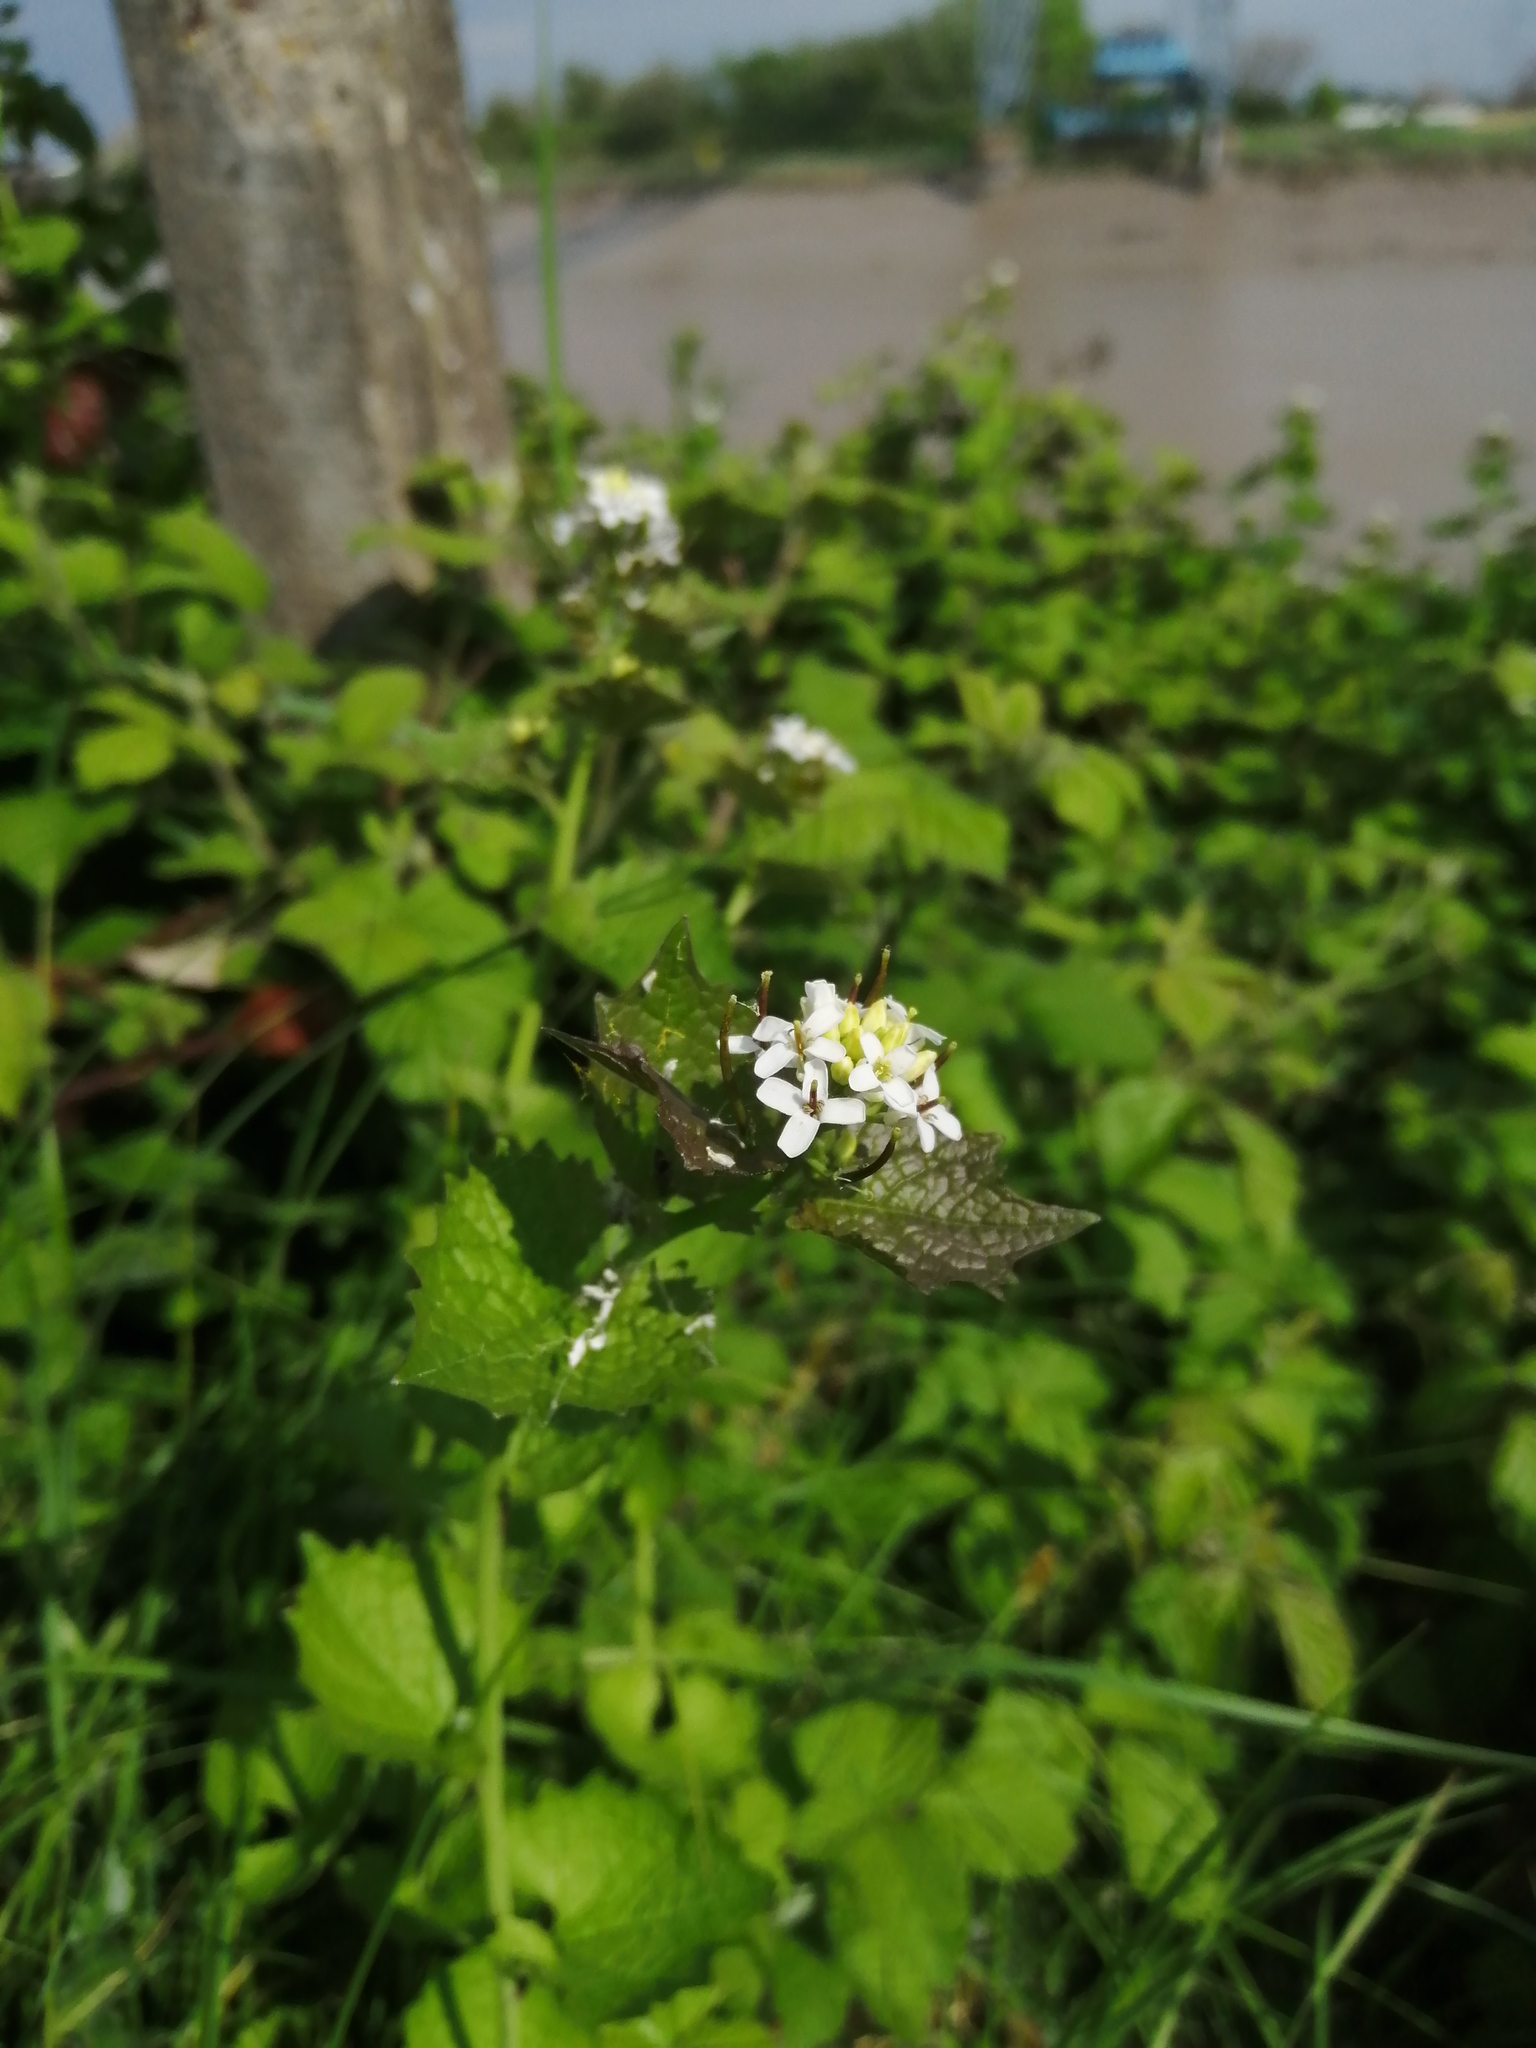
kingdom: Plantae
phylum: Tracheophyta
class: Magnoliopsida
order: Brassicales
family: Brassicaceae
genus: Alliaria
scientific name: Alliaria petiolata
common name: Garlic mustard
